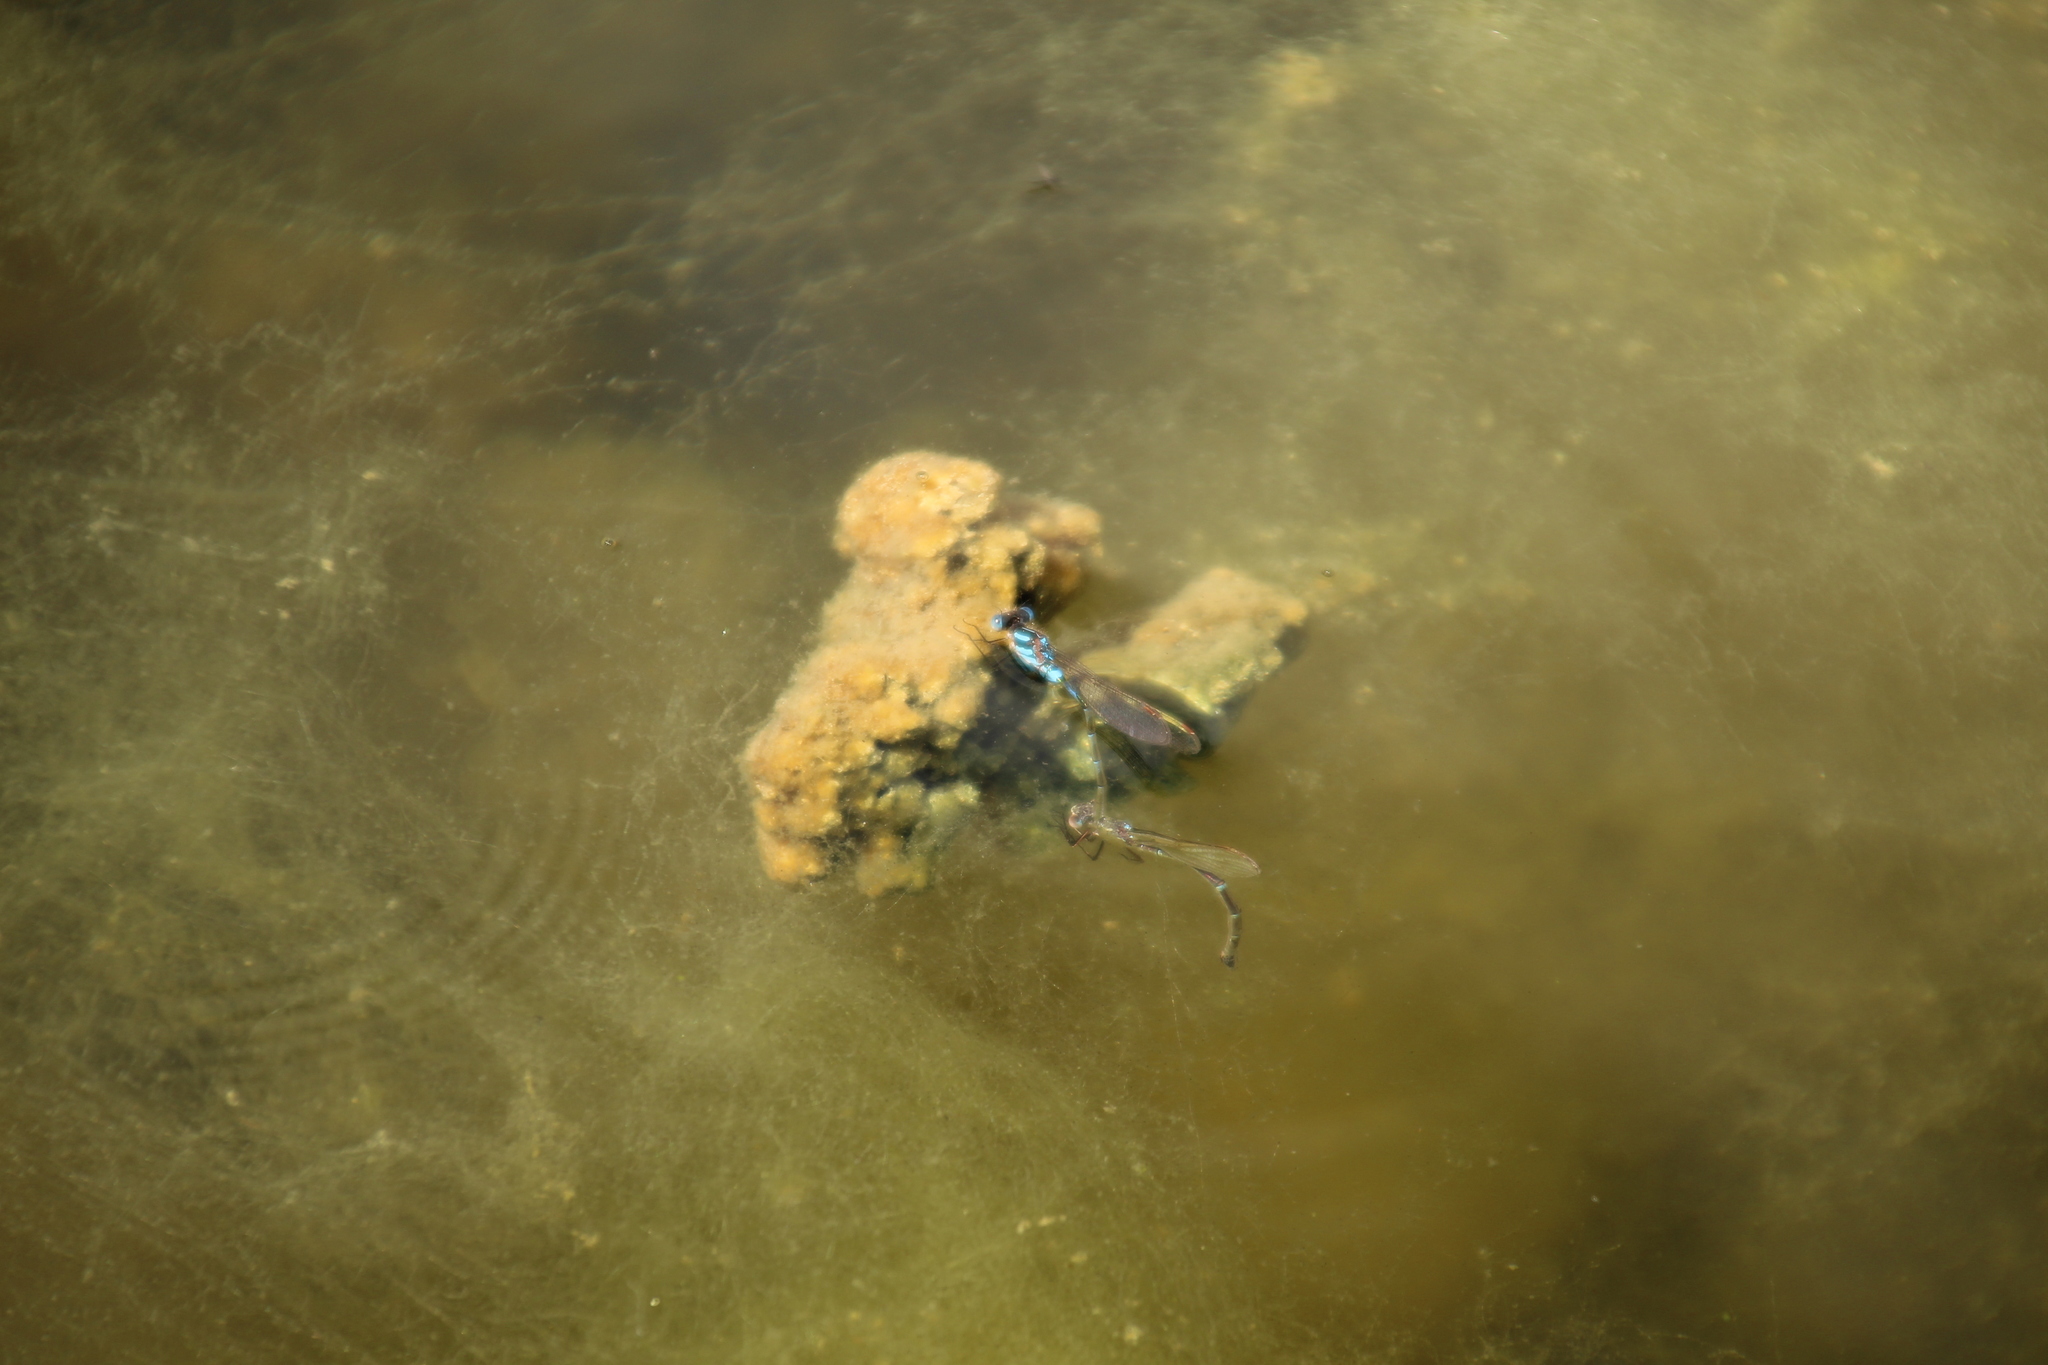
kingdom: Animalia
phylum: Arthropoda
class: Insecta
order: Odonata
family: Lestidae
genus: Austrolestes
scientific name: Austrolestes annulosus
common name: Blue ringtail
